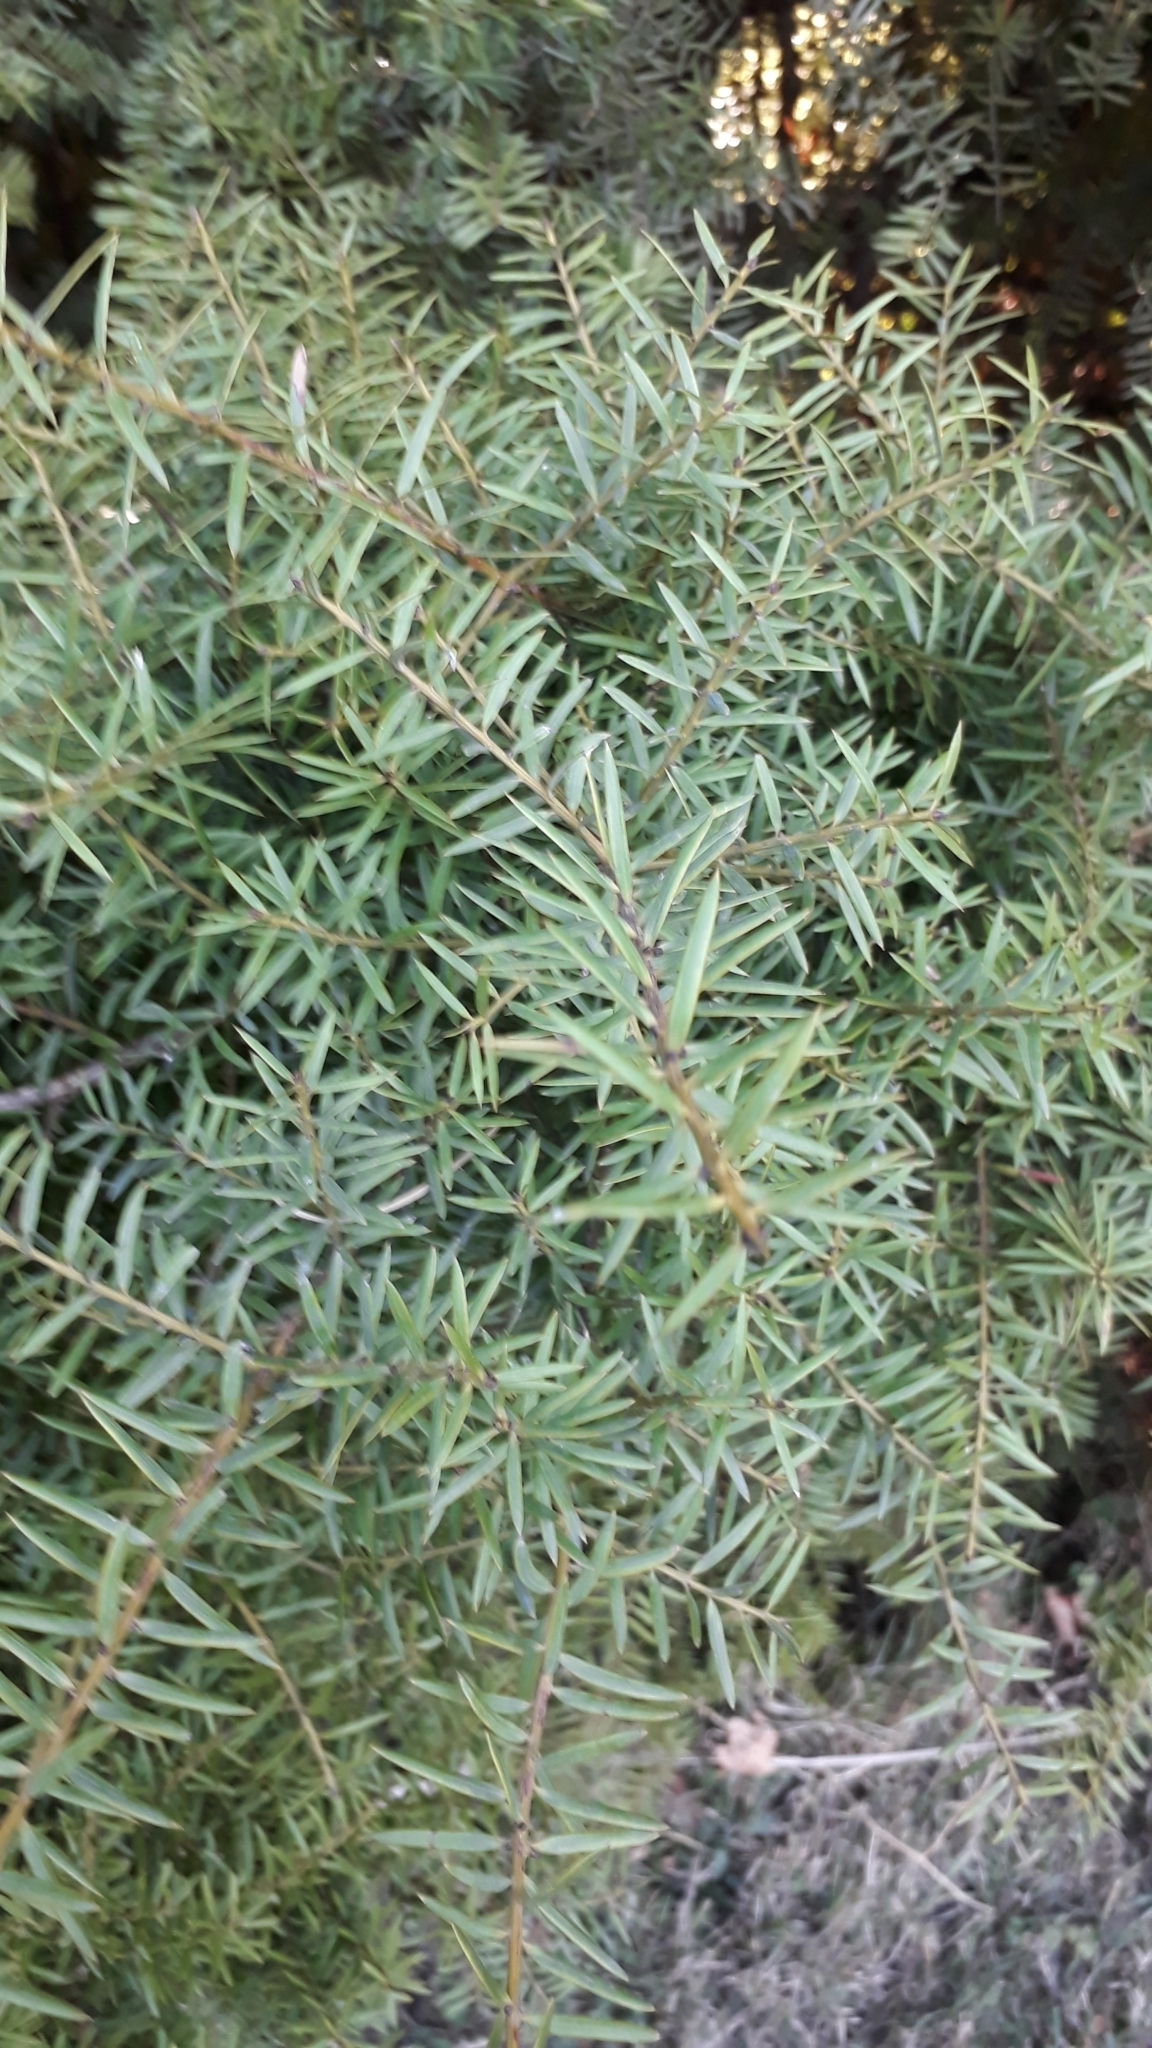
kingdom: Plantae
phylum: Tracheophyta
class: Pinopsida
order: Pinales
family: Podocarpaceae
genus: Podocarpus
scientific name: Podocarpus totara
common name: Totara
